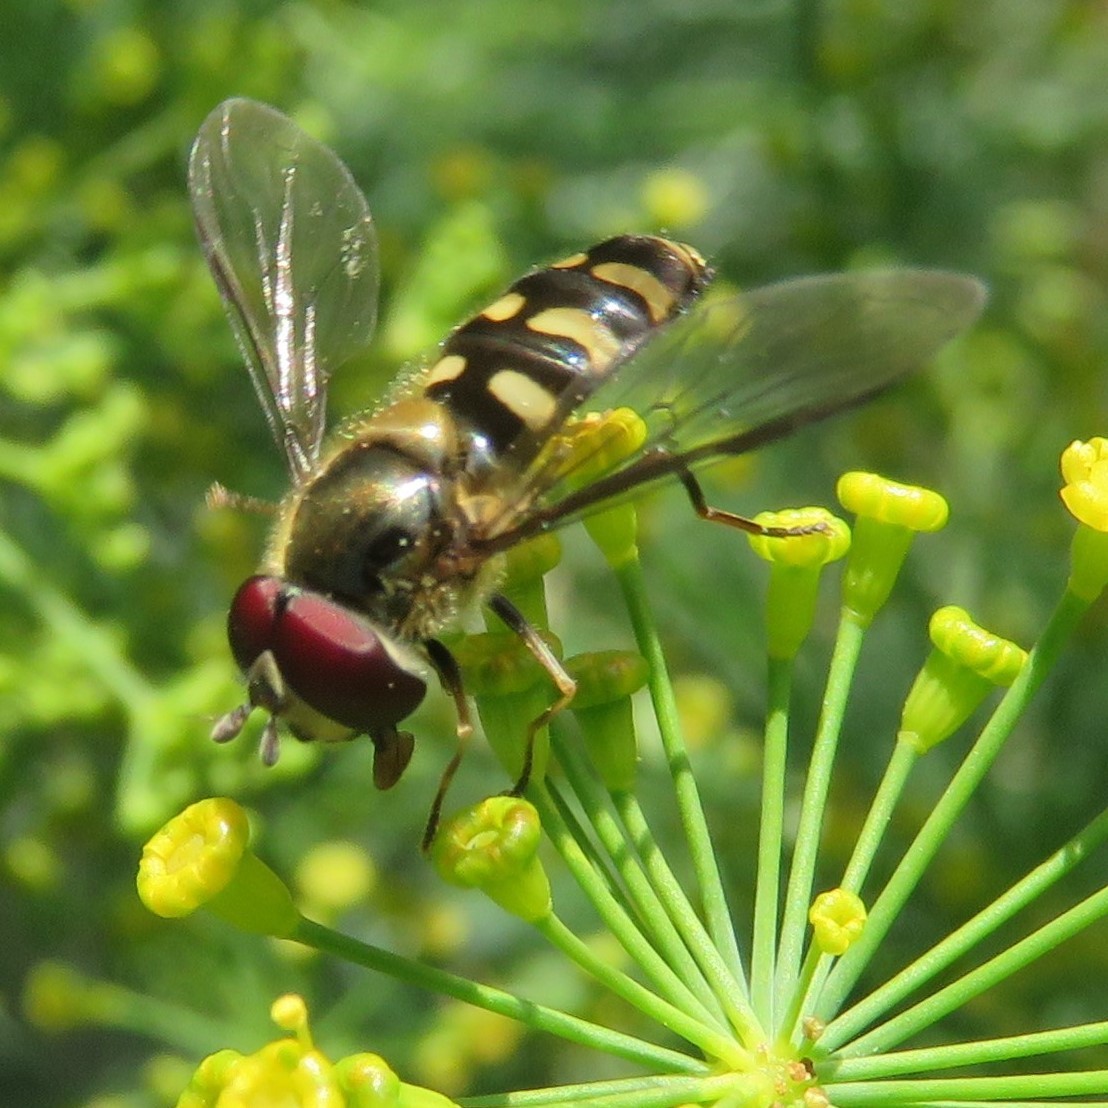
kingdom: Animalia
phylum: Arthropoda
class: Insecta
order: Diptera
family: Syrphidae
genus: Lapposyrphus
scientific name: Lapposyrphus lapponicus
